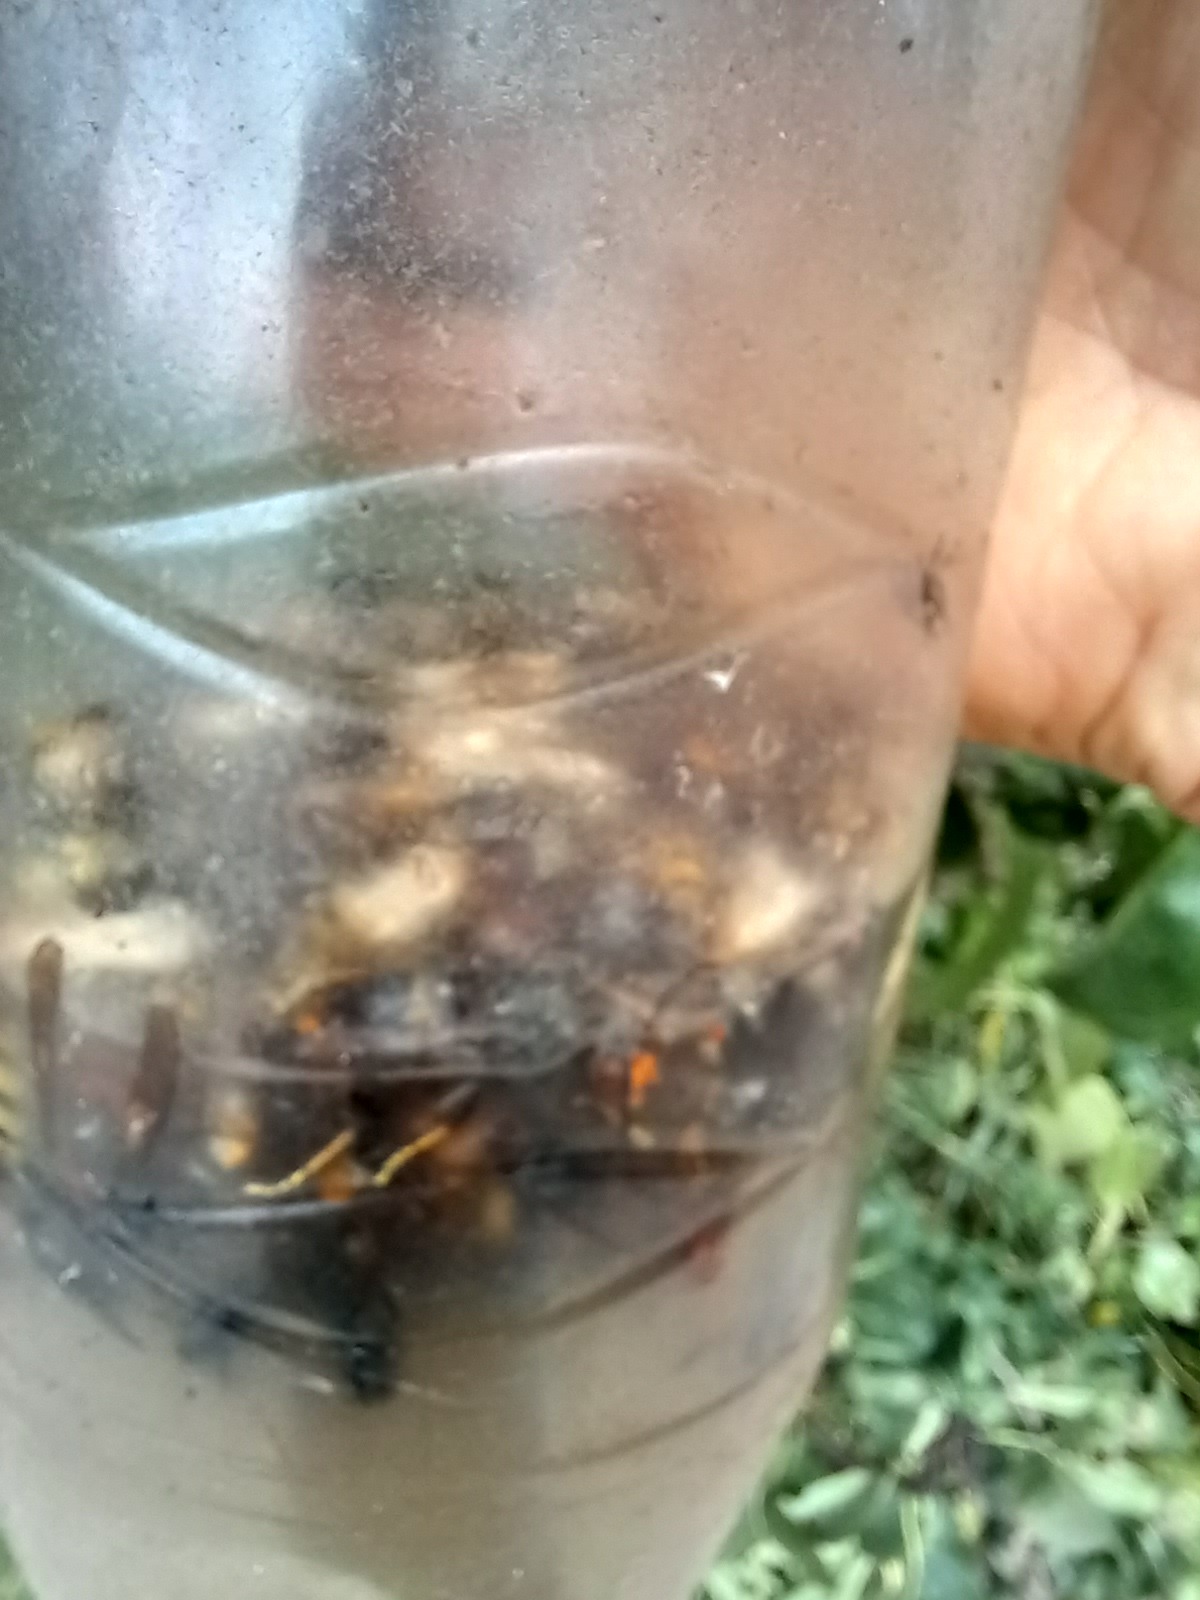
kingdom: Animalia
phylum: Arthropoda
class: Insecta
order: Hymenoptera
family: Vespidae
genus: Vespa
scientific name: Vespa velutina
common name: Asian hornet
